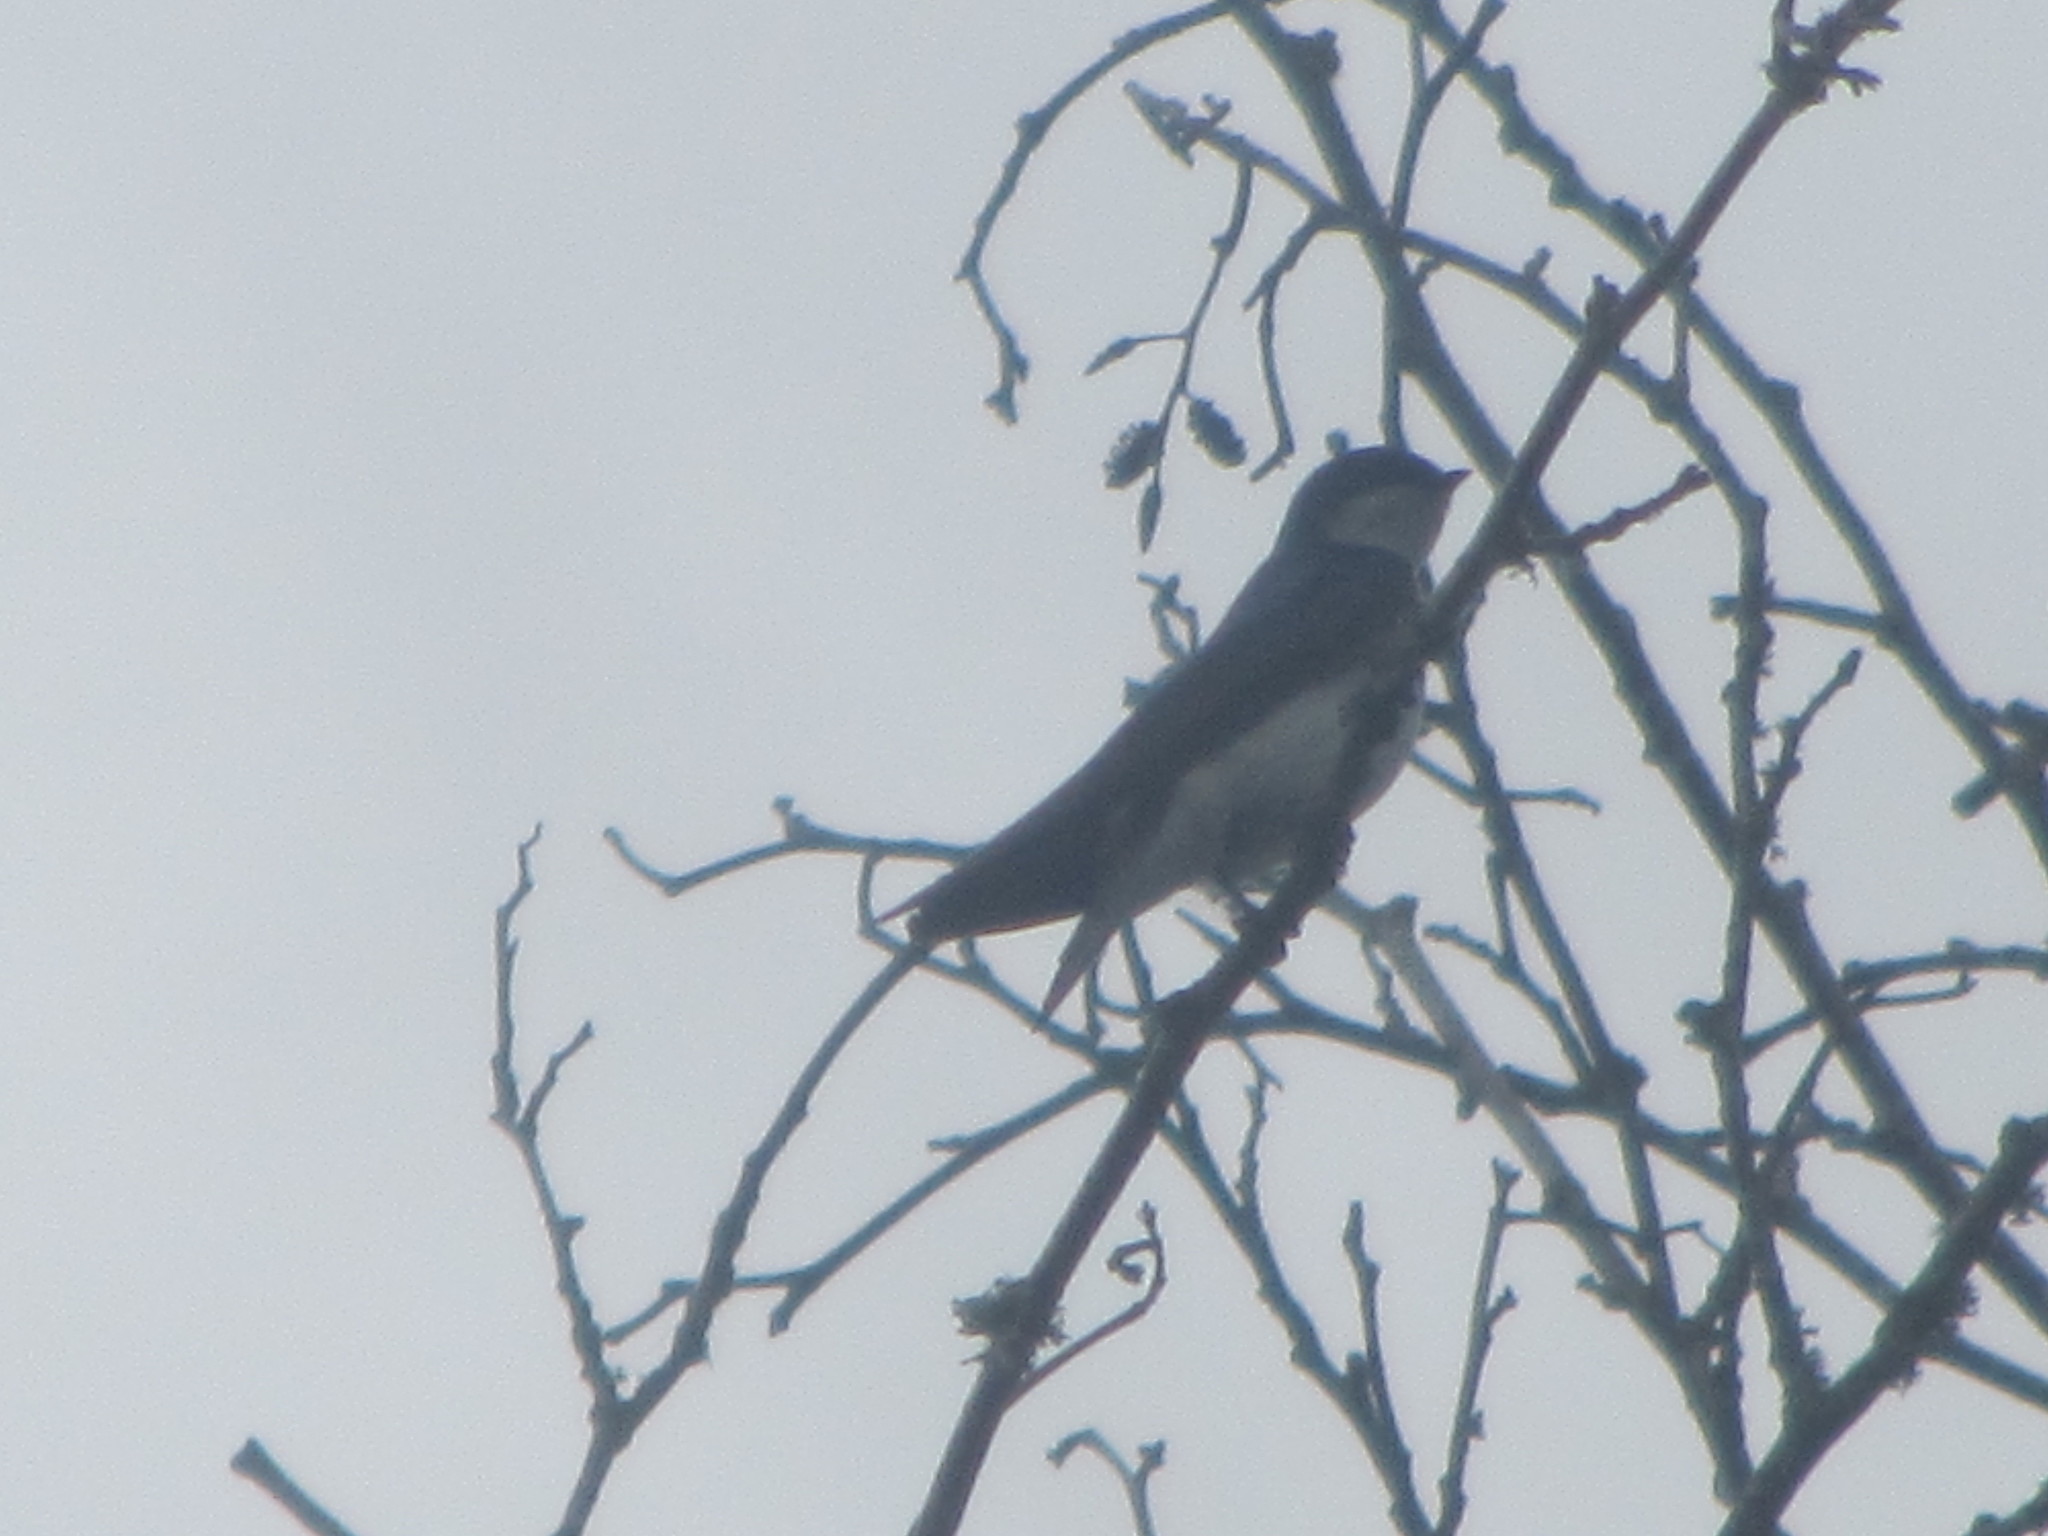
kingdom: Animalia
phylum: Chordata
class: Aves
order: Passeriformes
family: Hirundinidae
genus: Tachycineta
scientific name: Tachycineta bicolor
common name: Tree swallow
